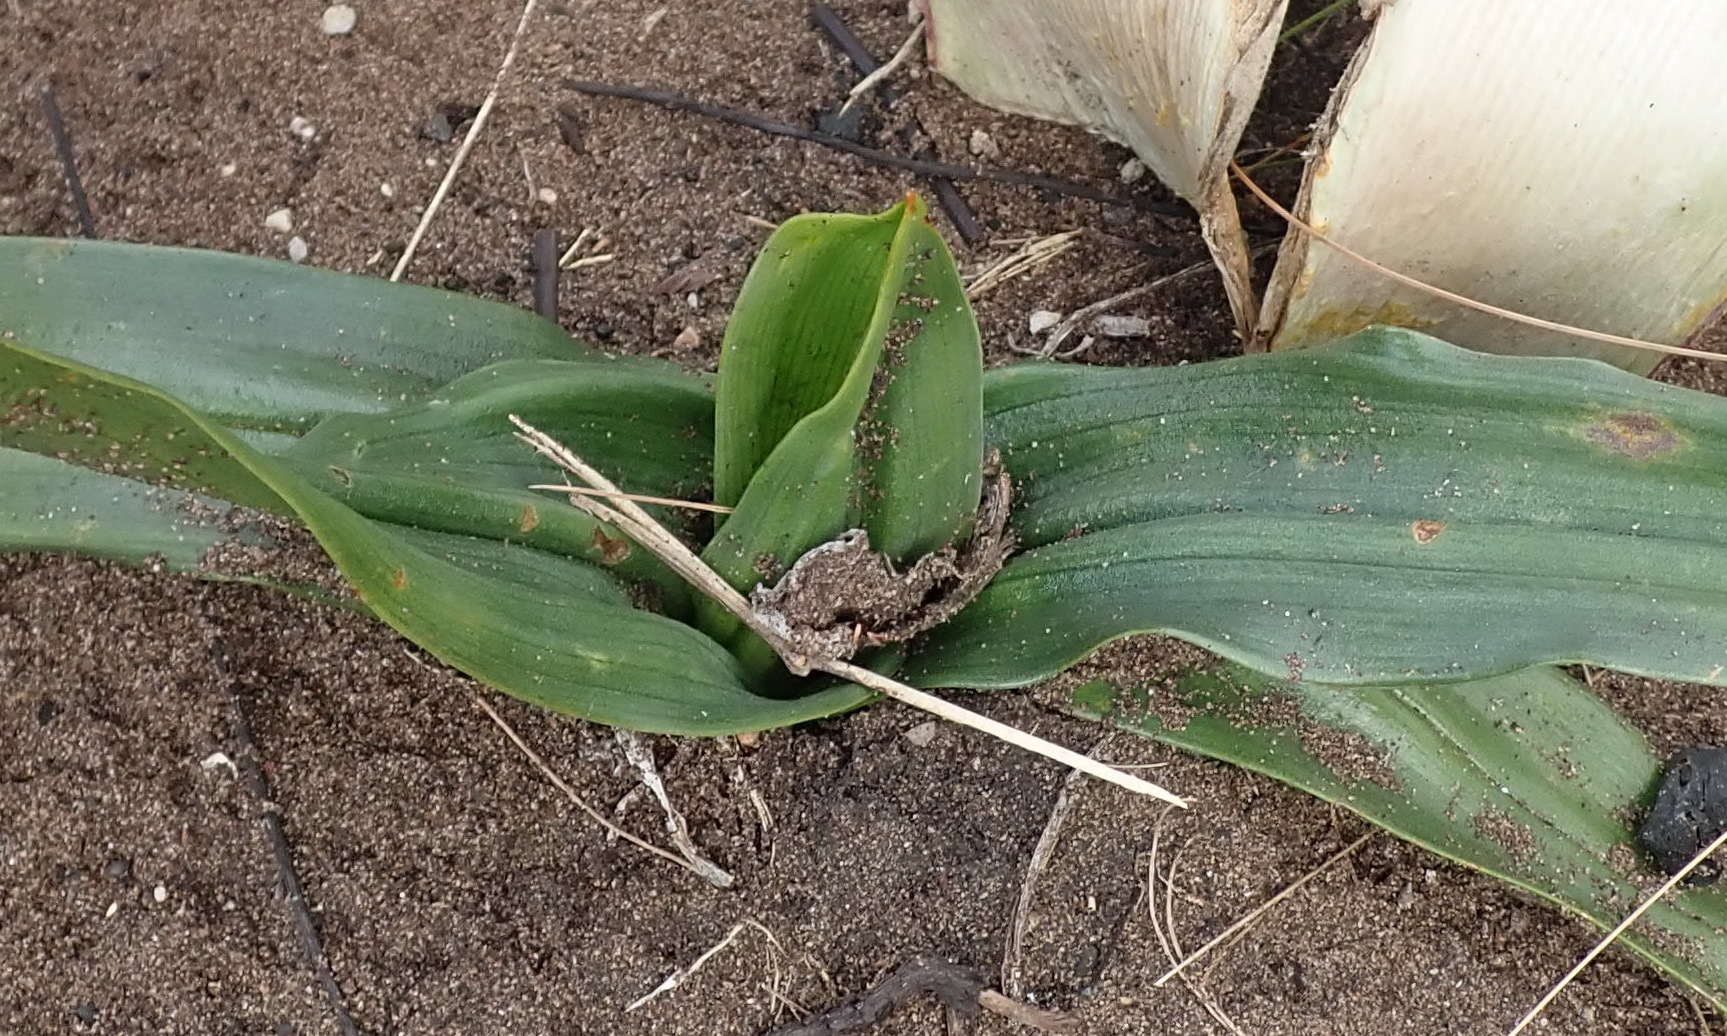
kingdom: Plantae
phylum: Tracheophyta
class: Liliopsida
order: Liliales
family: Colchicaceae
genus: Colchicum
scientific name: Colchicum eucomoides
